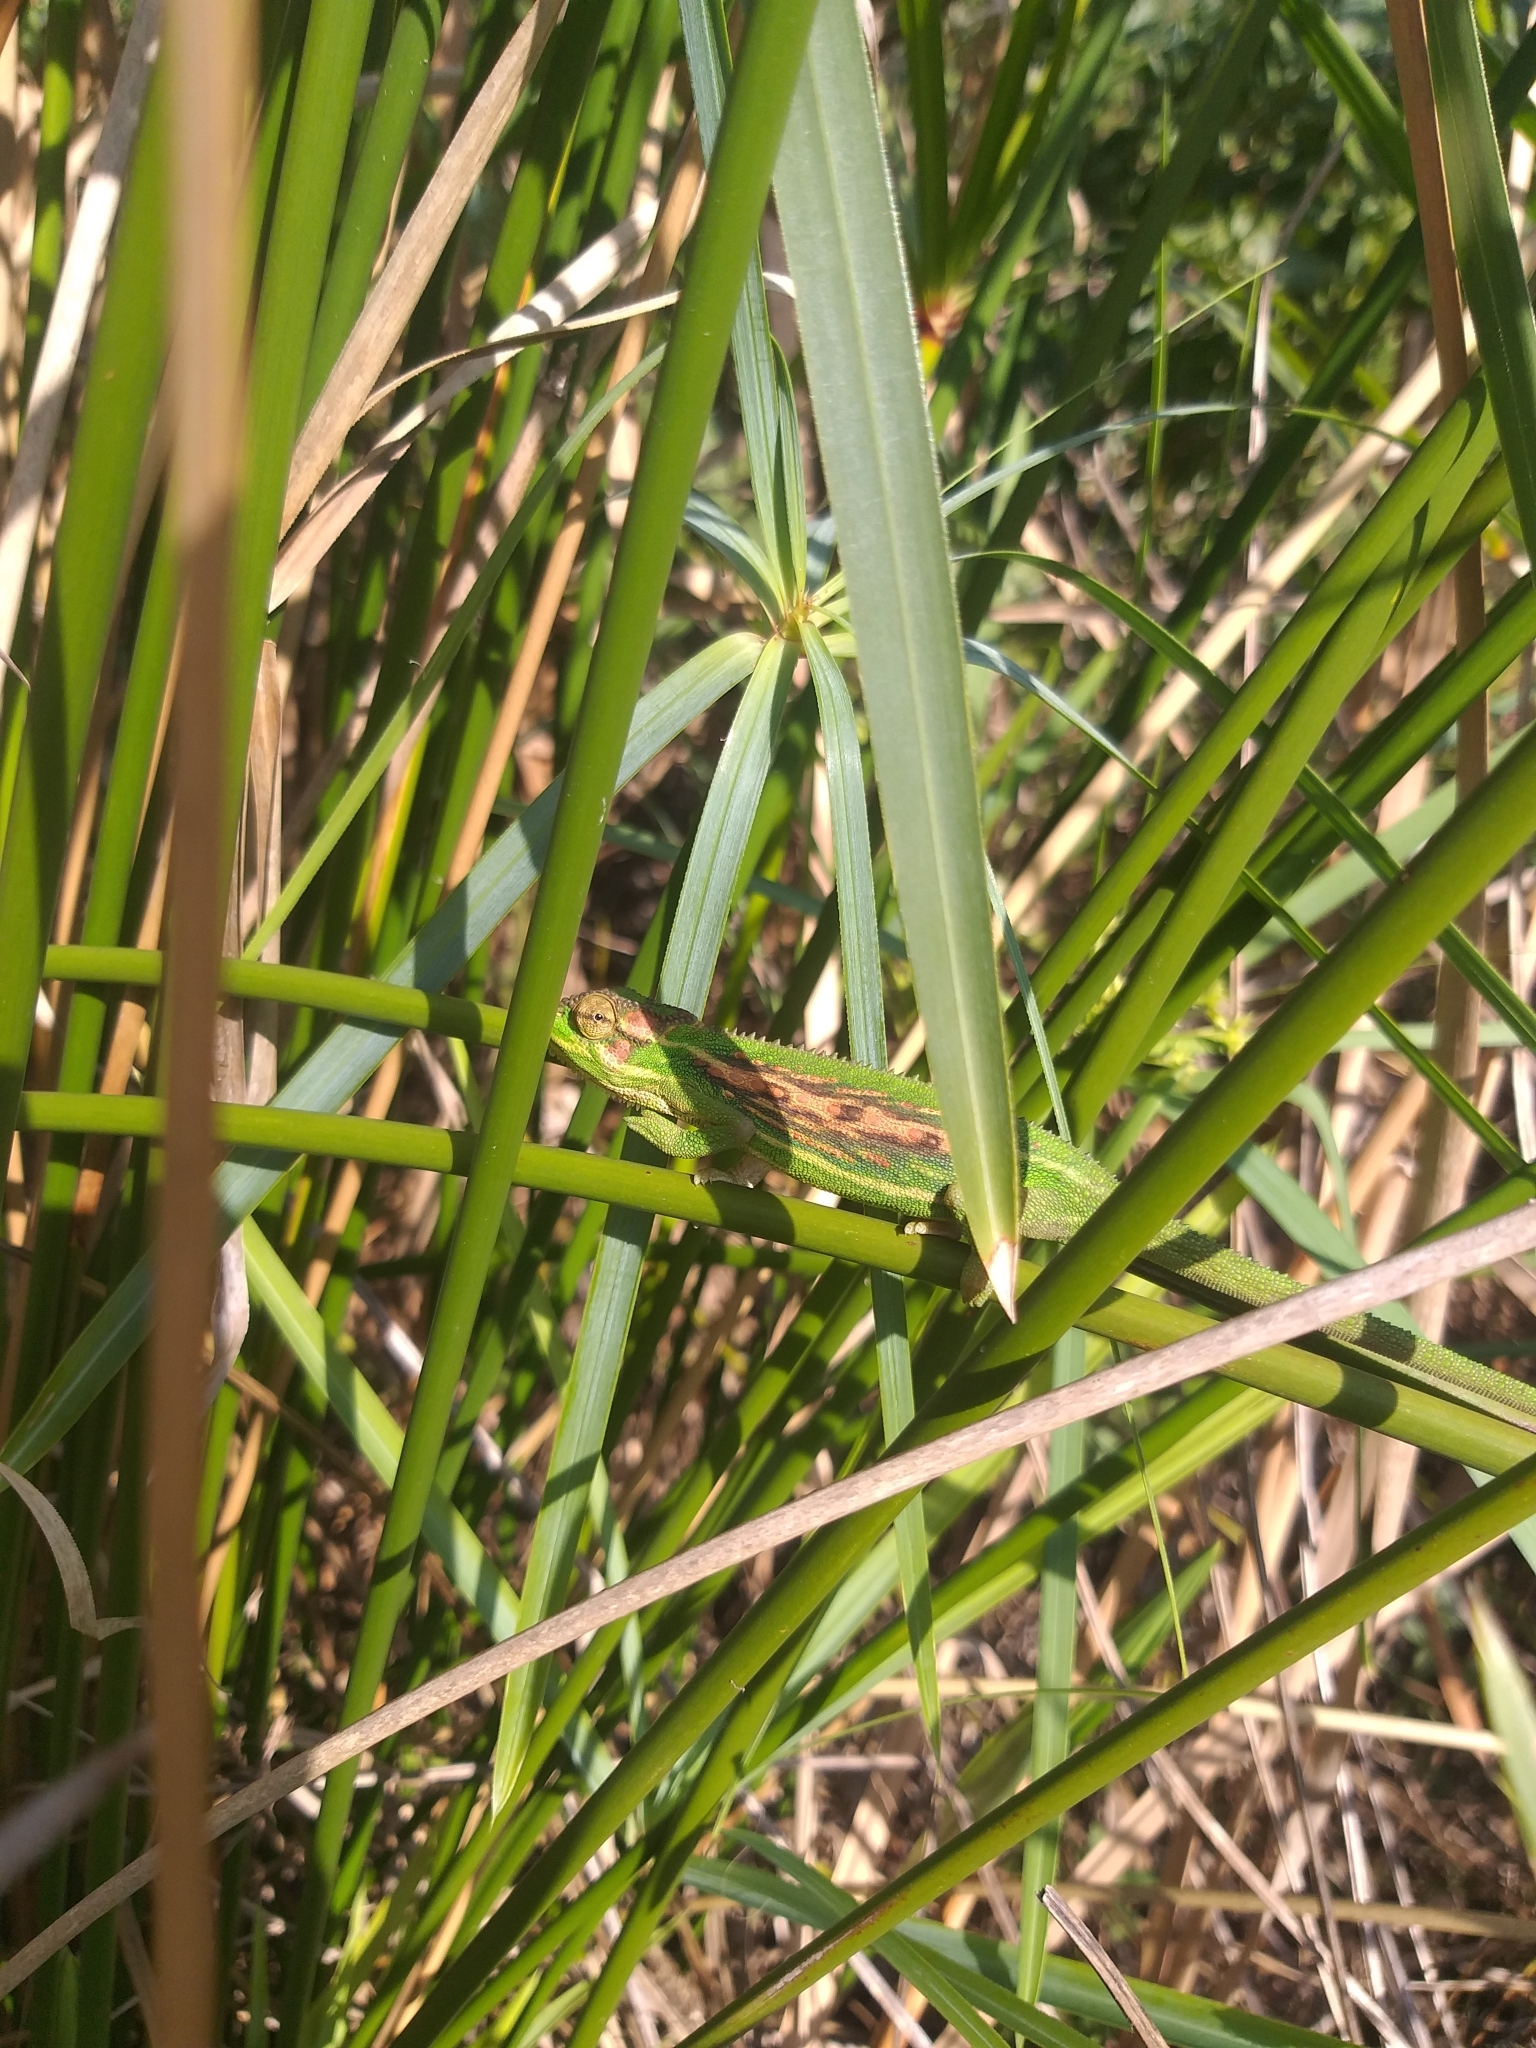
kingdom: Animalia
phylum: Chordata
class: Squamata
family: Chamaeleonidae
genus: Bradypodion
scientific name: Bradypodion pumilum
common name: Cape dwarf chameleon
